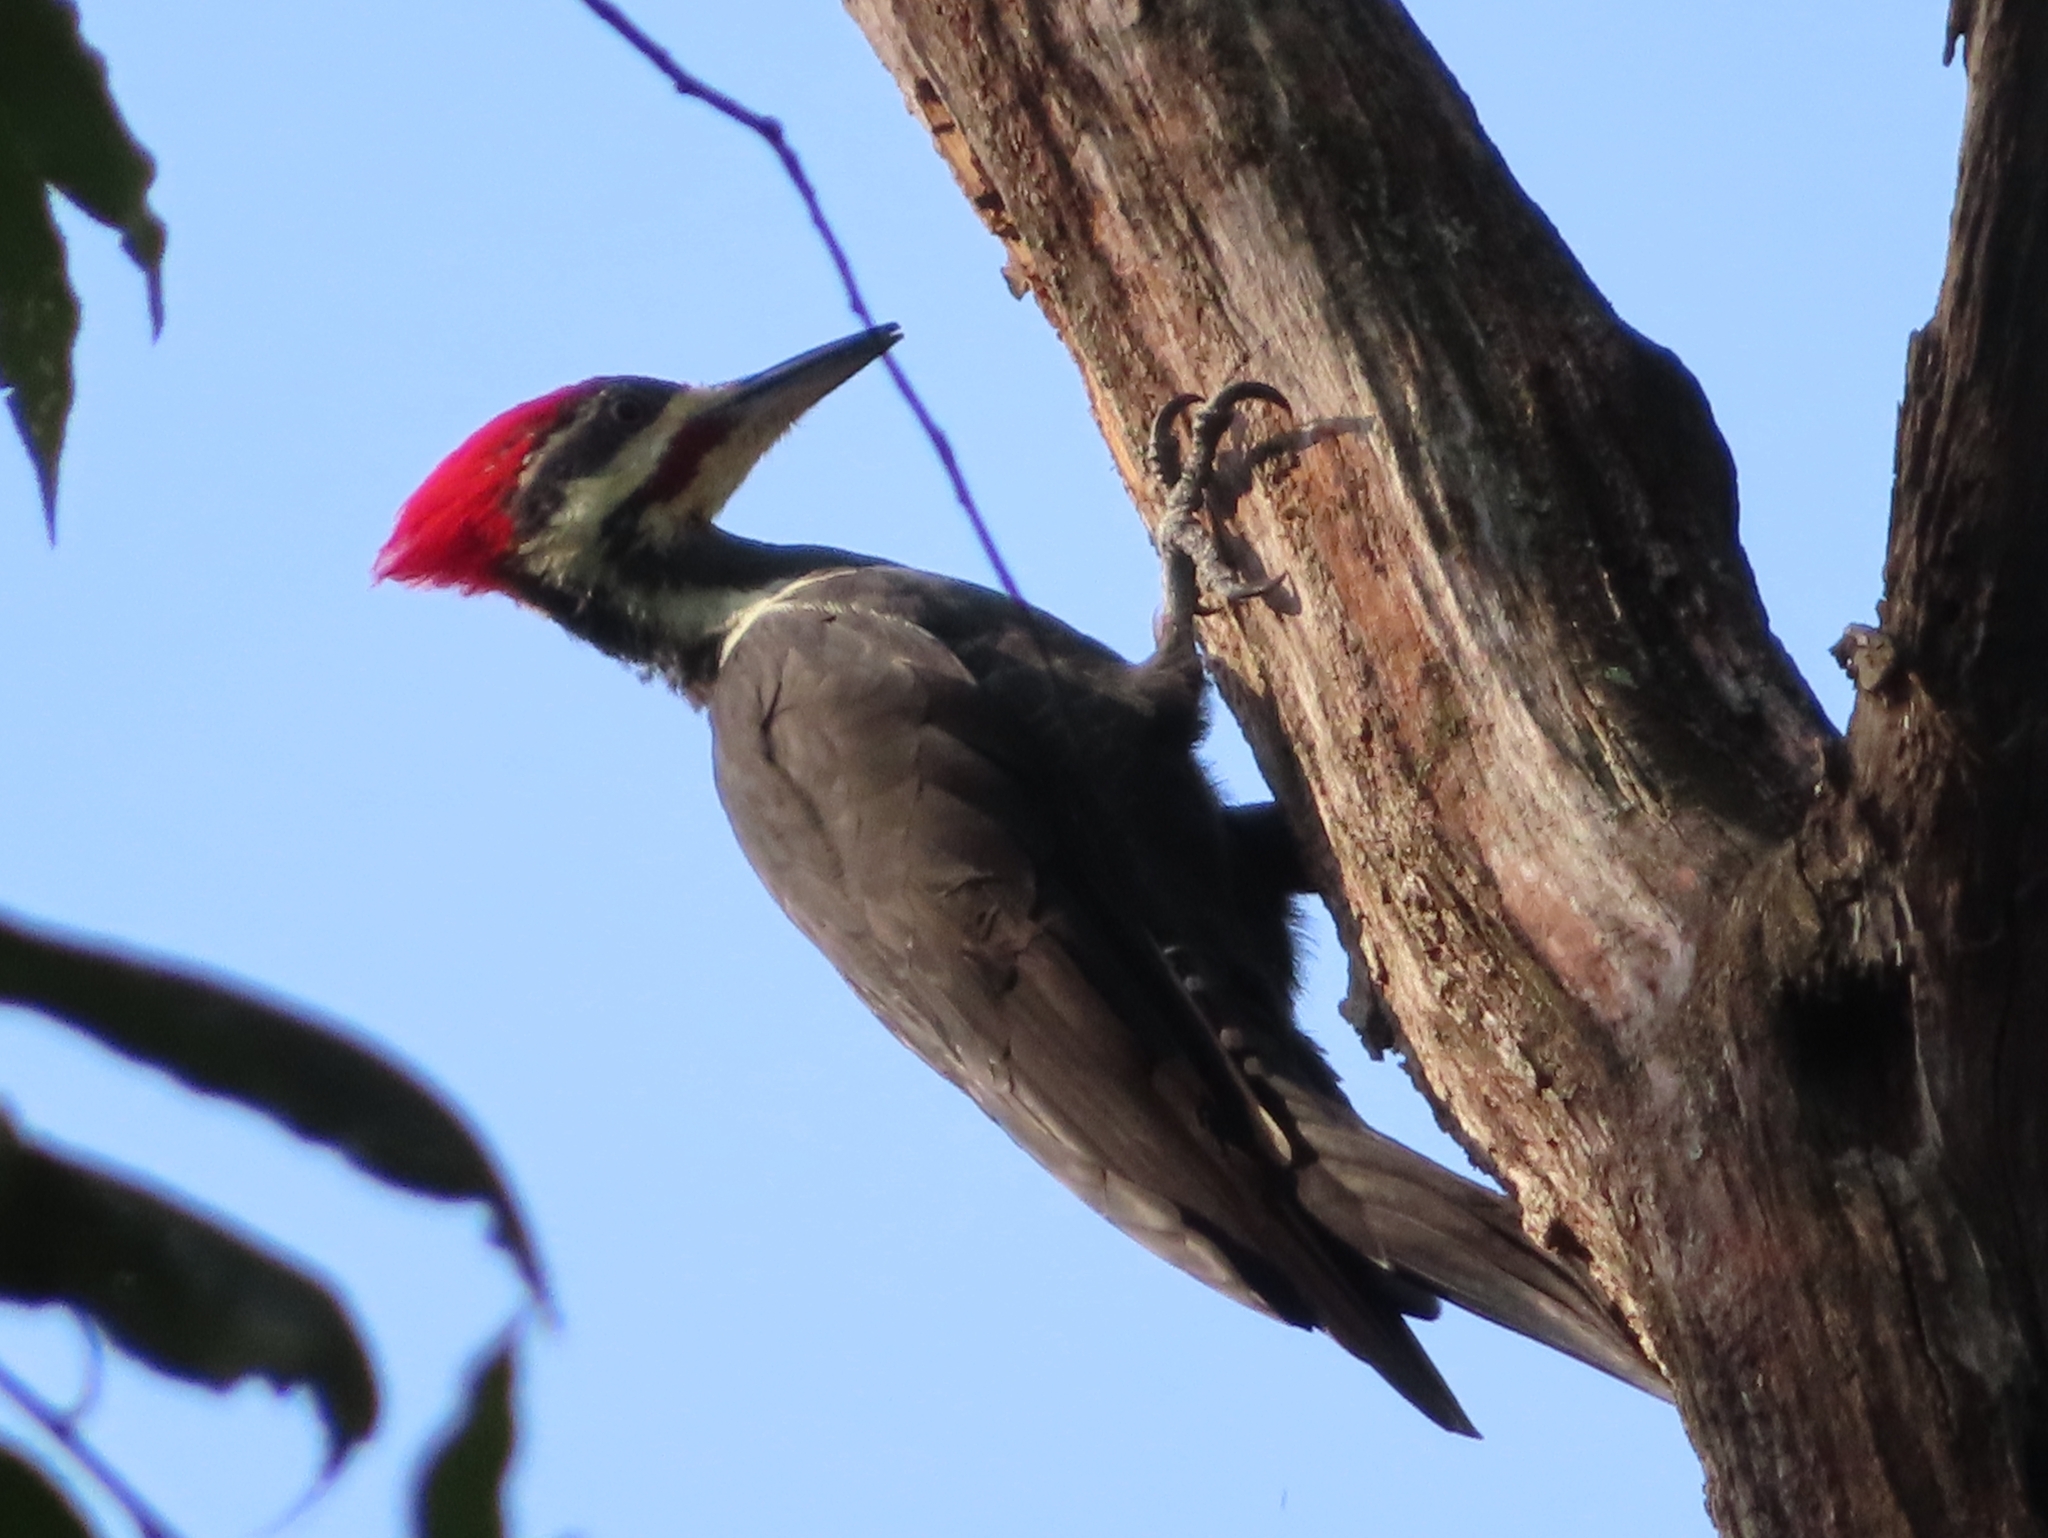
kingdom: Animalia
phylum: Chordata
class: Aves
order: Piciformes
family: Picidae
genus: Dryocopus
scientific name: Dryocopus pileatus
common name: Pileated woodpecker
